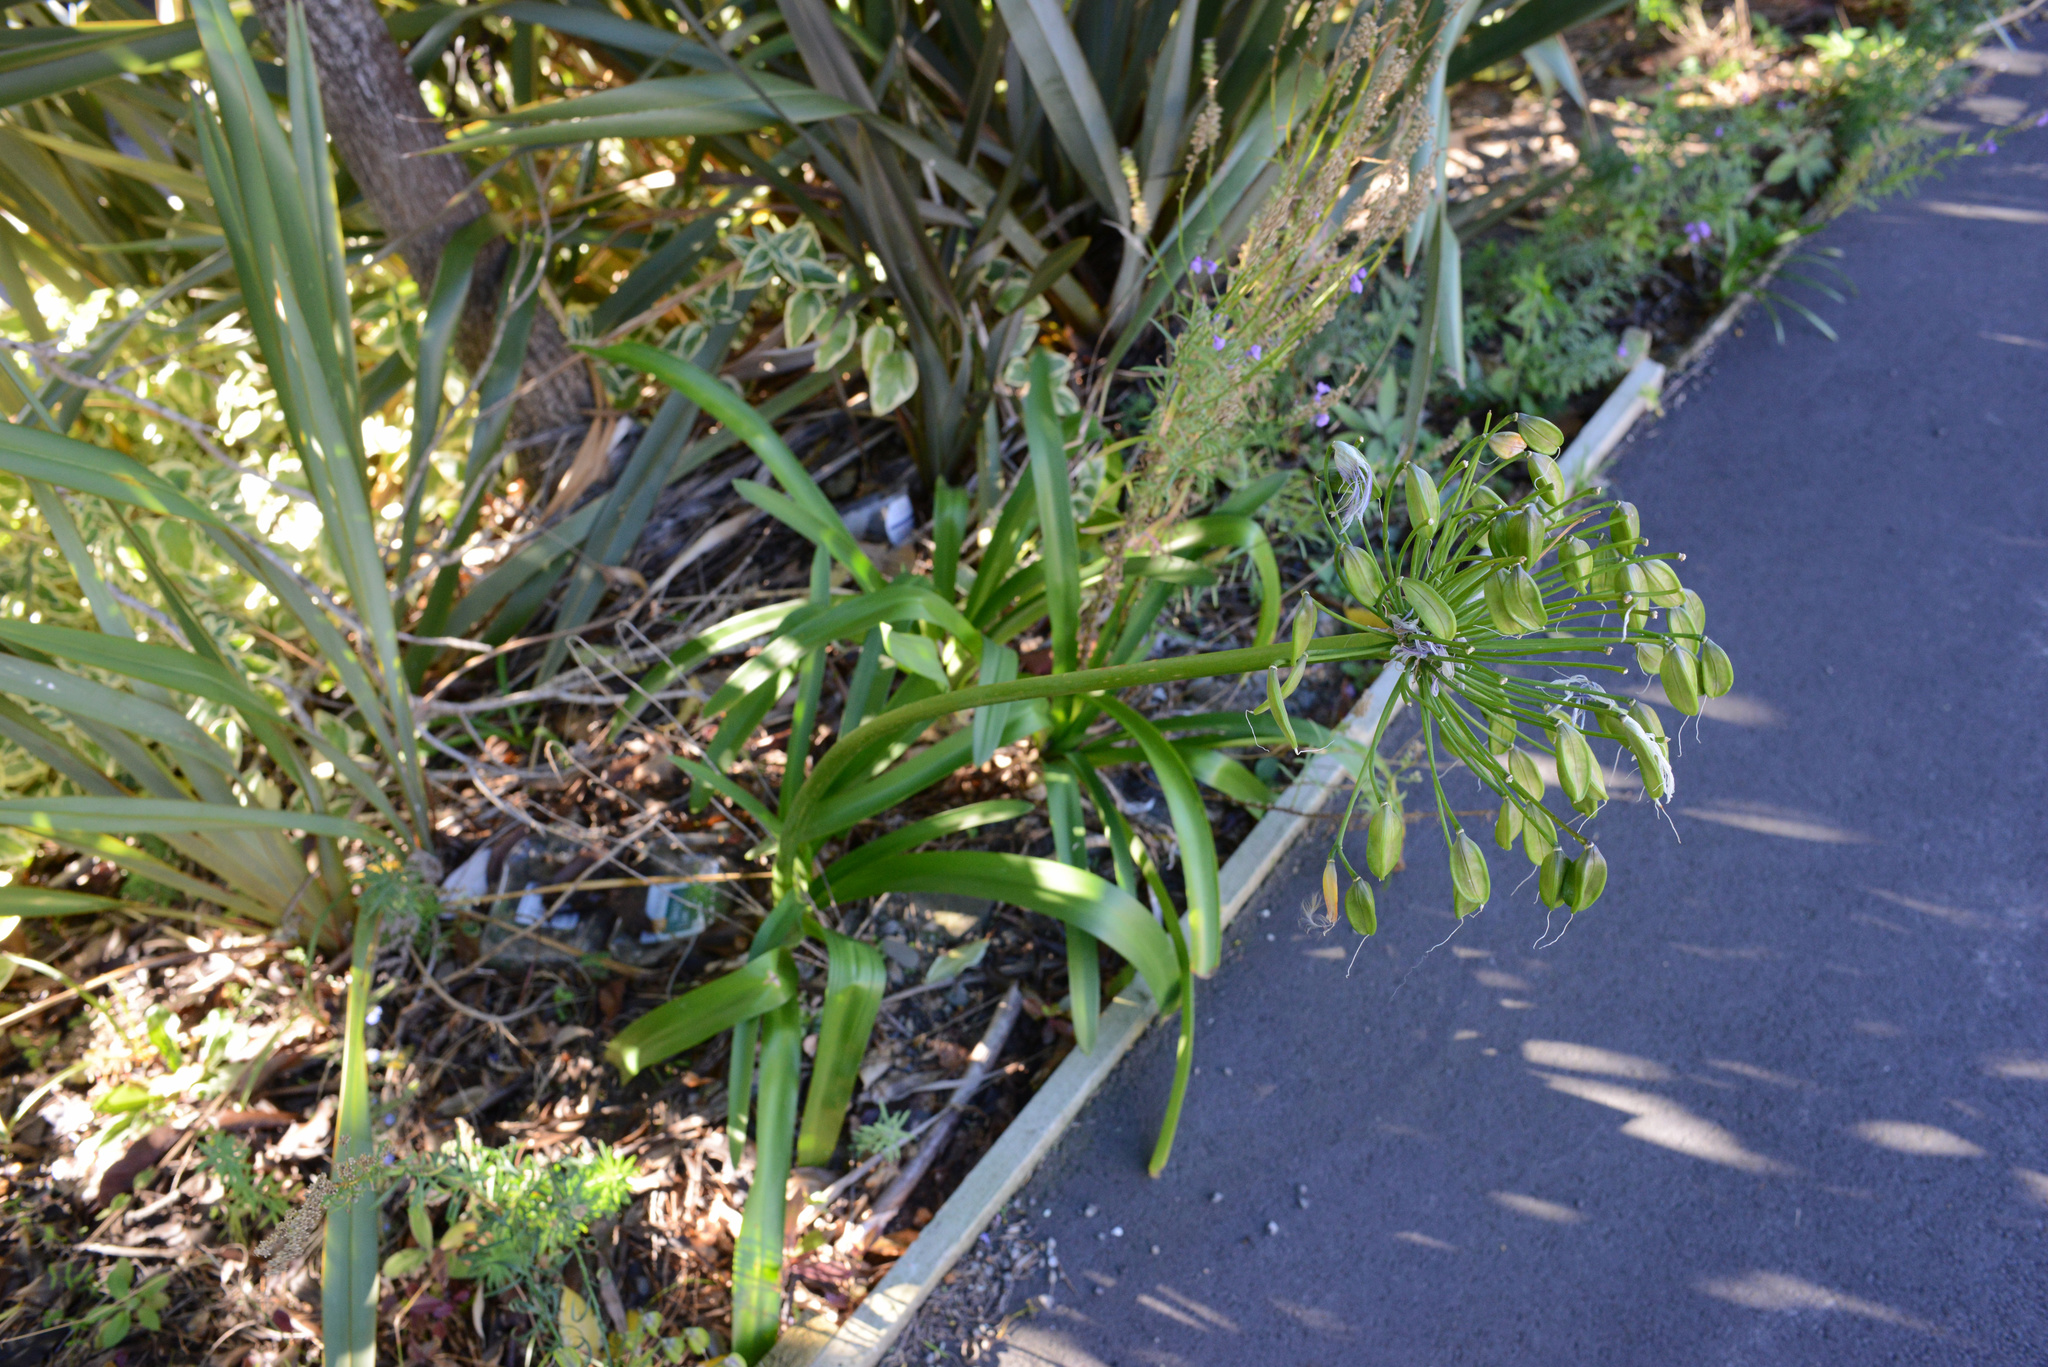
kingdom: Plantae
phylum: Tracheophyta
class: Liliopsida
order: Asparagales
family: Amaryllidaceae
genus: Agapanthus
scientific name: Agapanthus praecox
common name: African-lily
